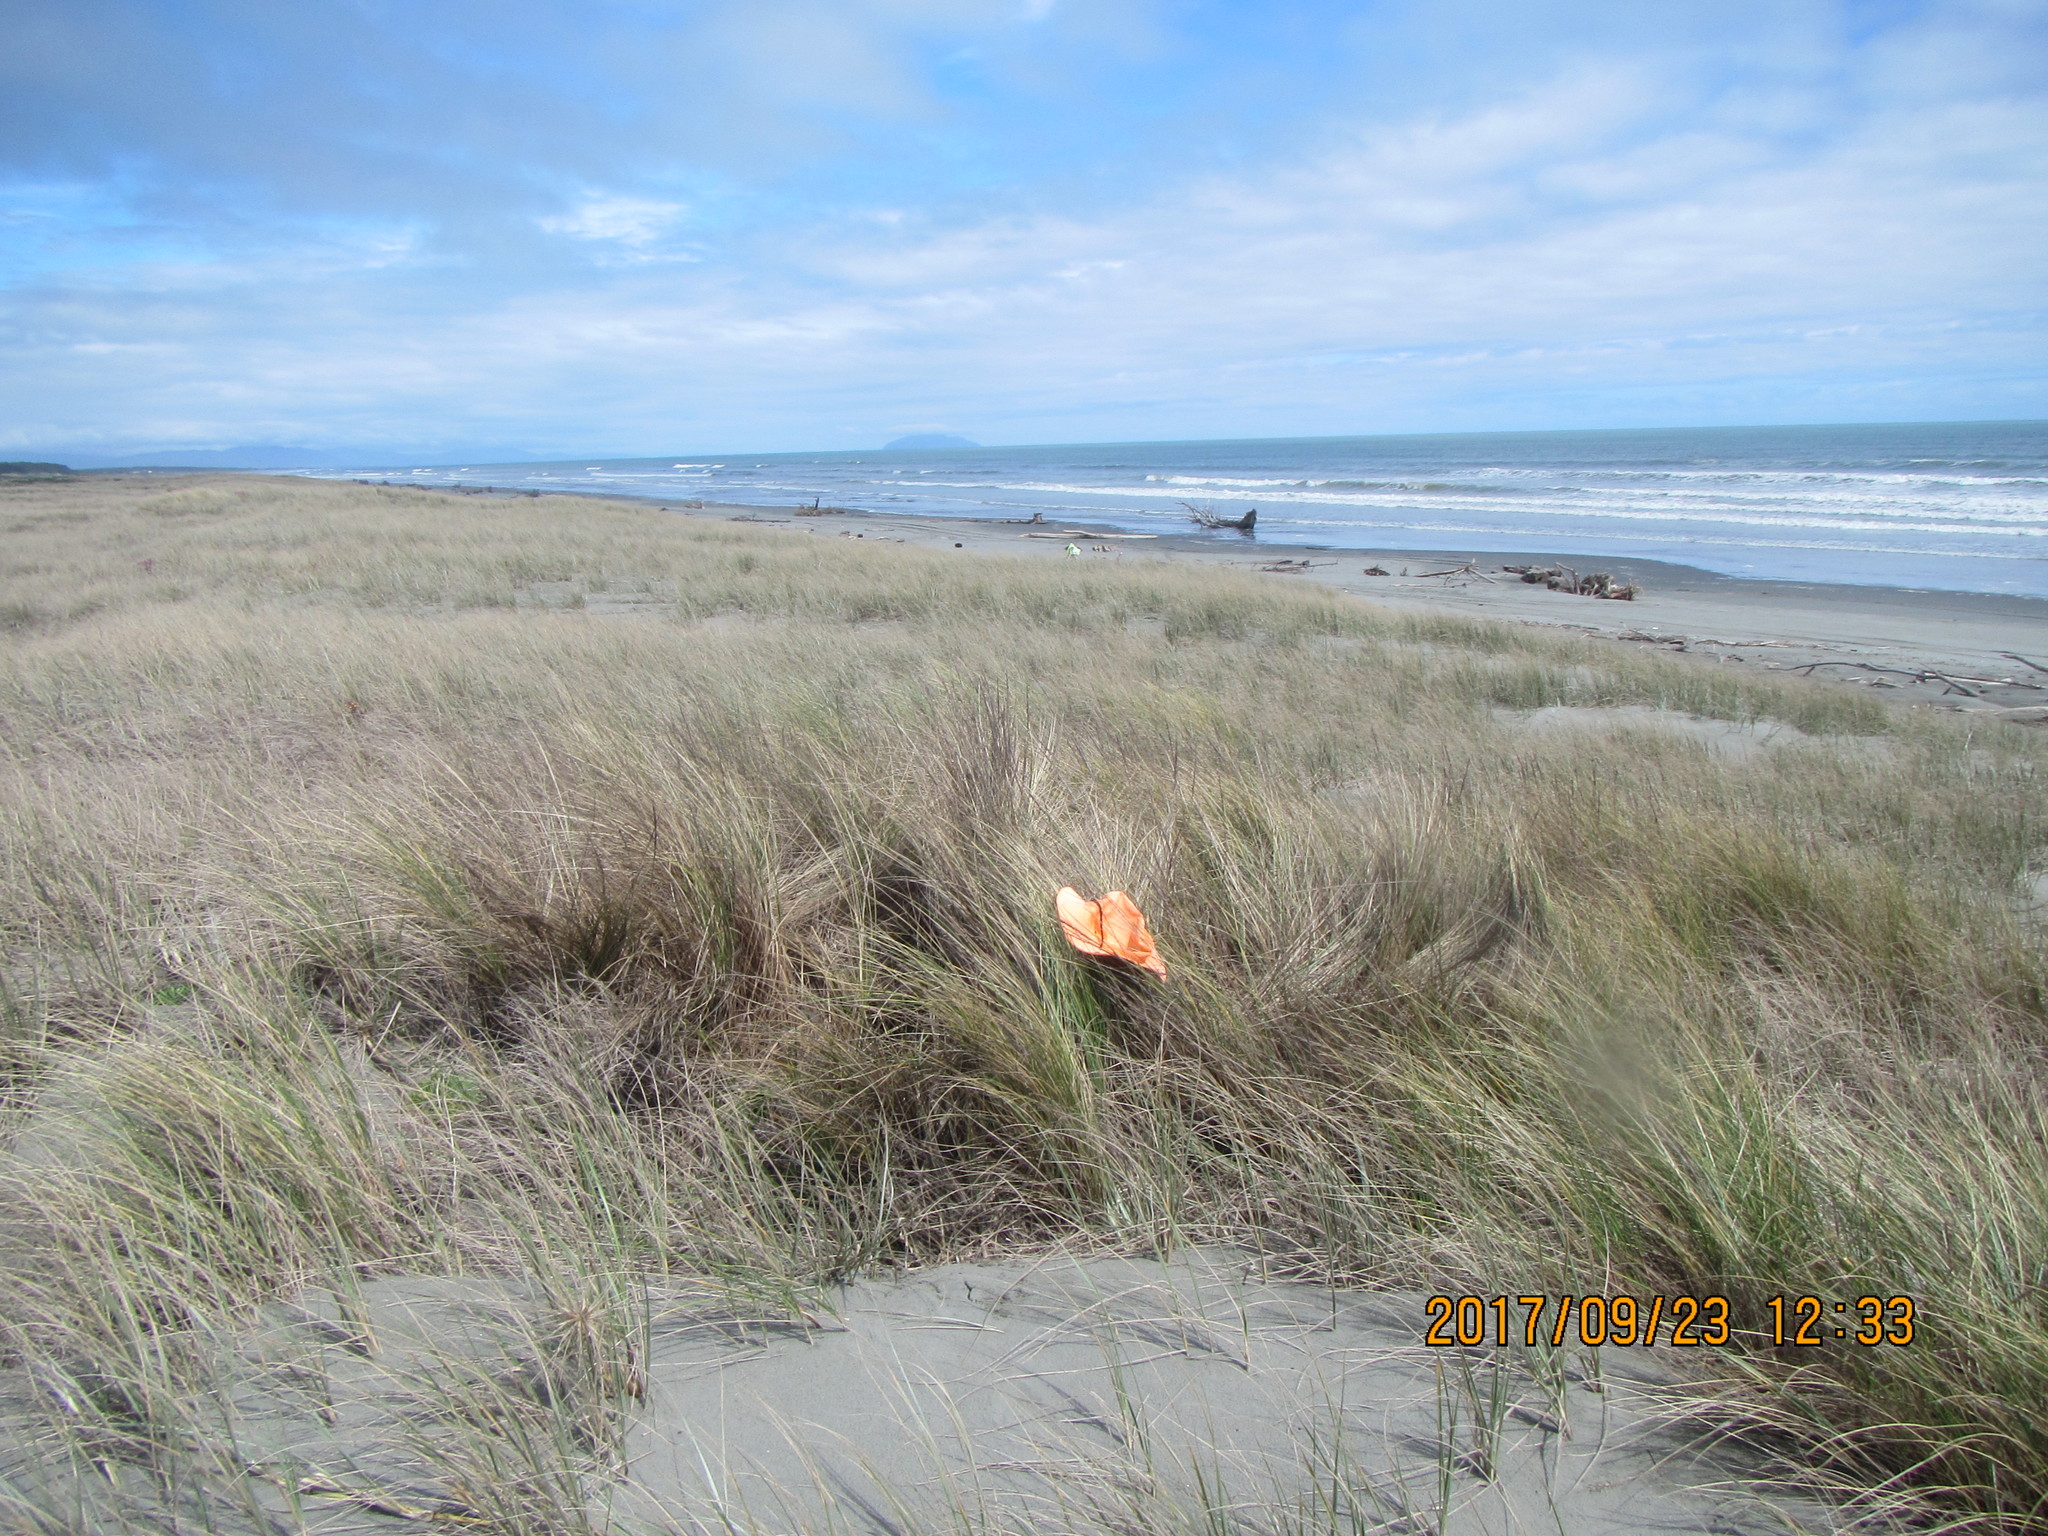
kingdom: Plantae
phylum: Tracheophyta
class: Liliopsida
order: Poales
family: Poaceae
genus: Calamagrostis
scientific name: Calamagrostis arenaria
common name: European beachgrass
